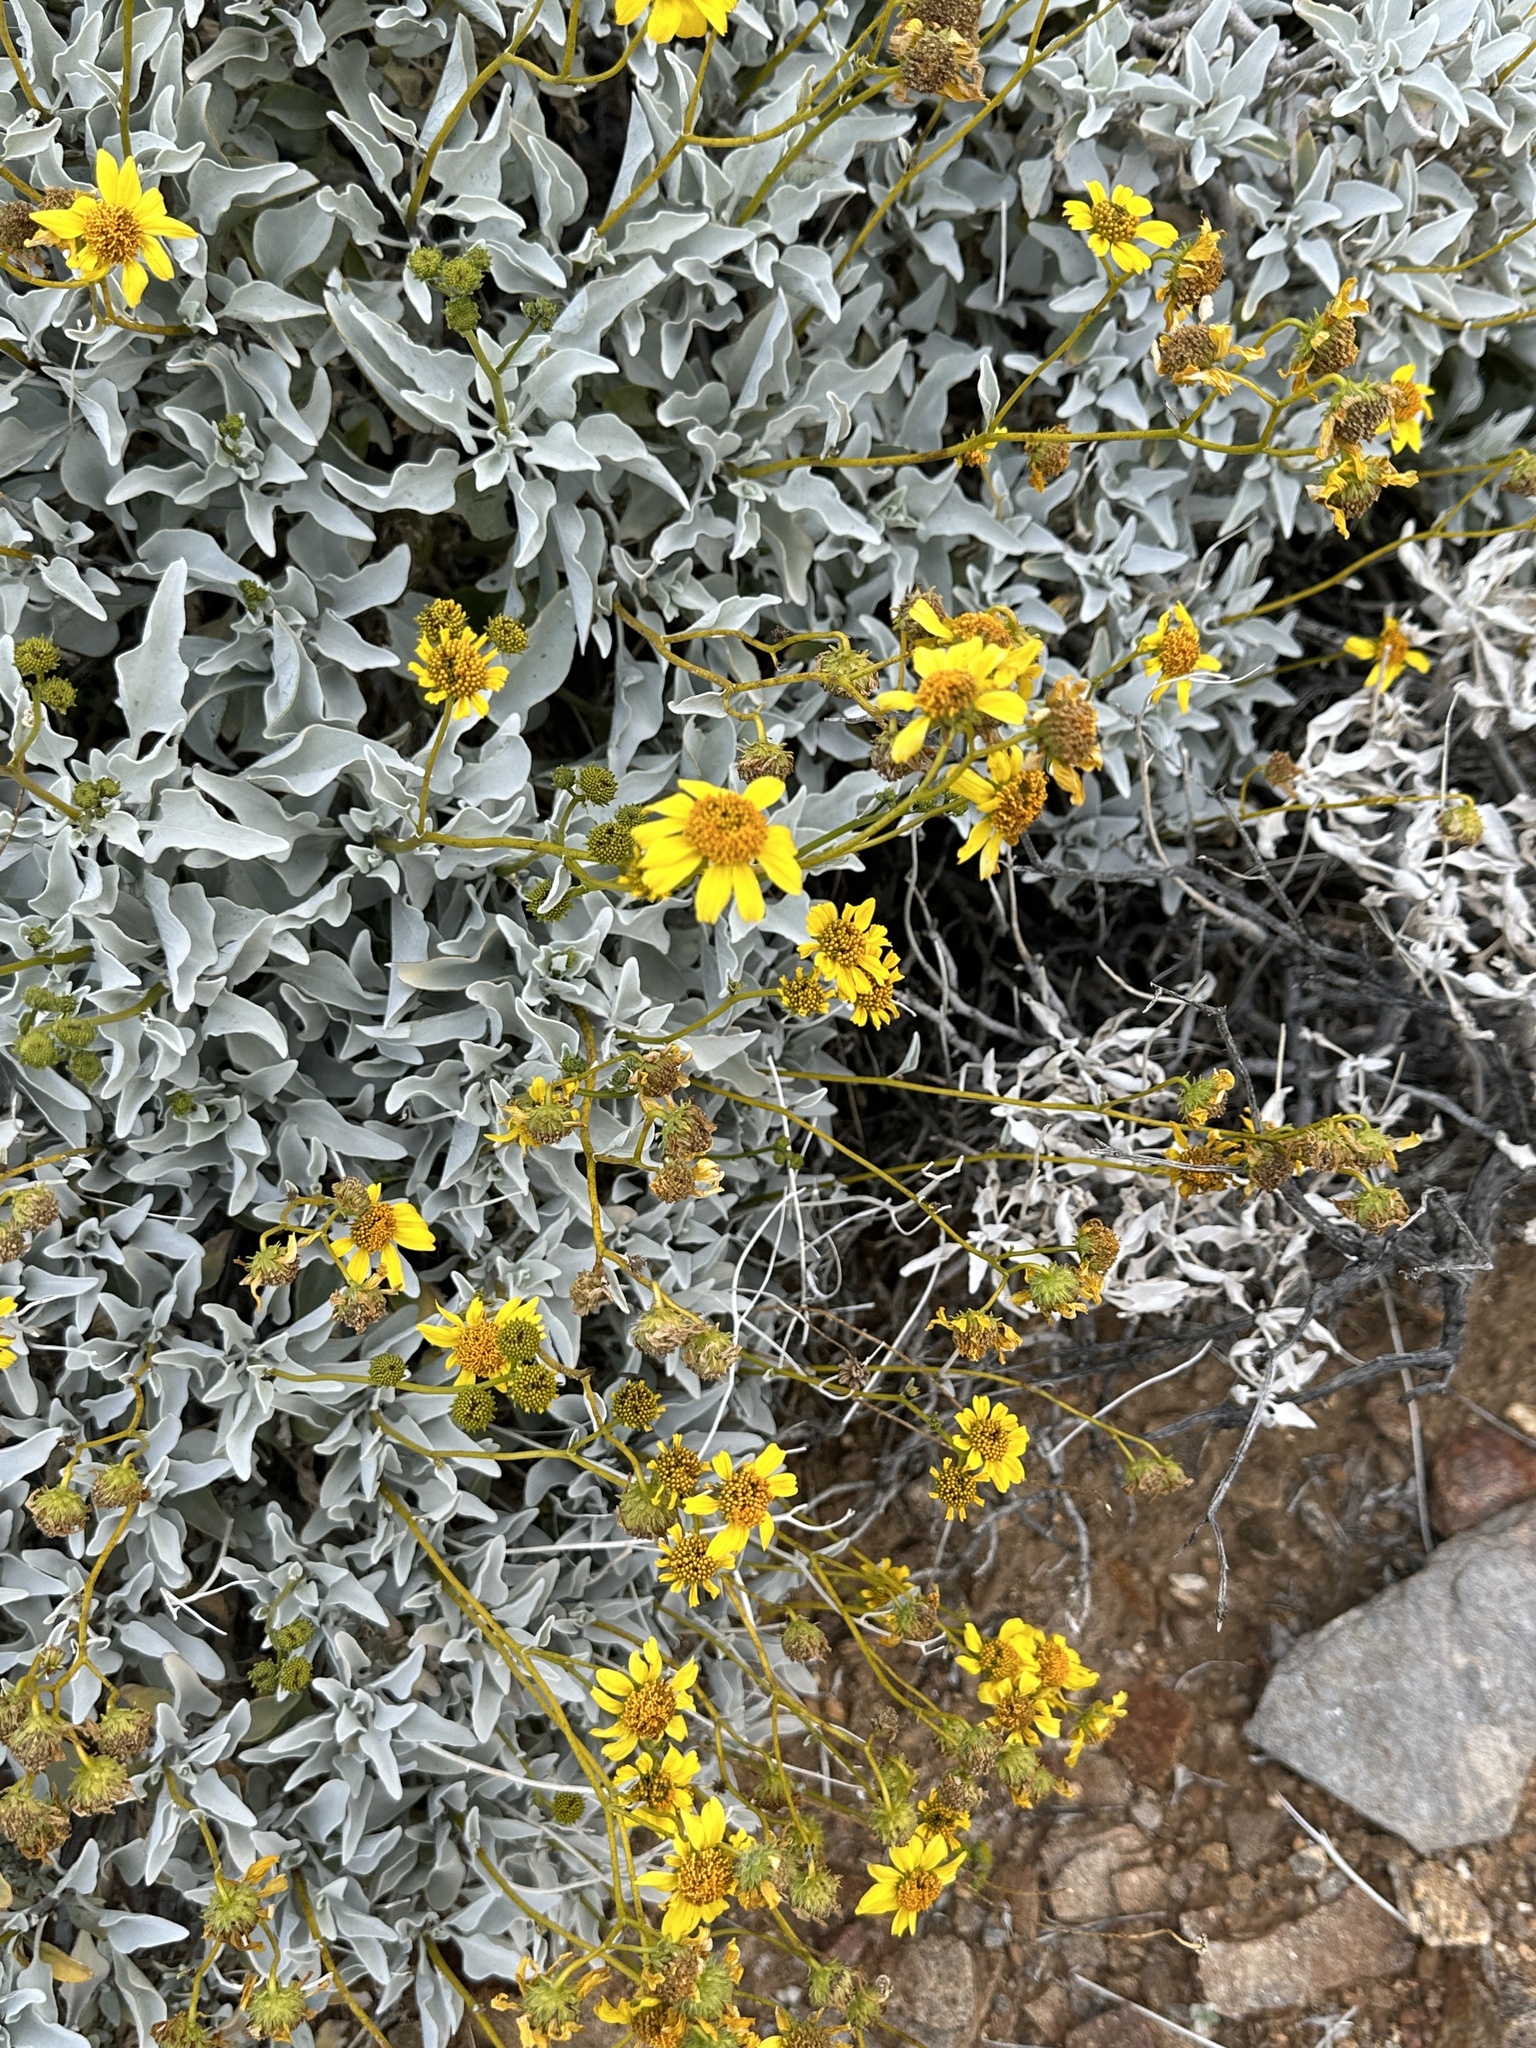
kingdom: Plantae
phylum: Tracheophyta
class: Magnoliopsida
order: Asterales
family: Asteraceae
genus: Encelia
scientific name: Encelia farinosa
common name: Brittlebush
